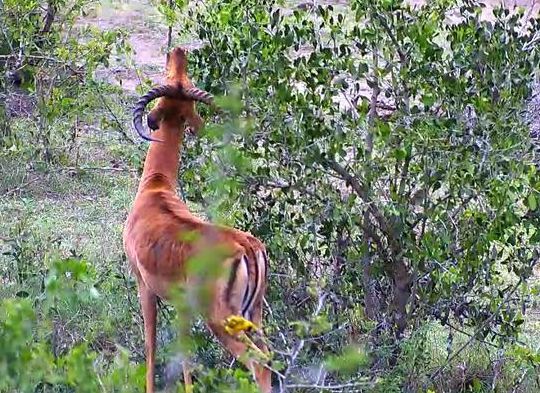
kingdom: Animalia
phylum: Chordata
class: Aves
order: Passeriformes
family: Ploceidae
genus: Ploceus
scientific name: Ploceus
